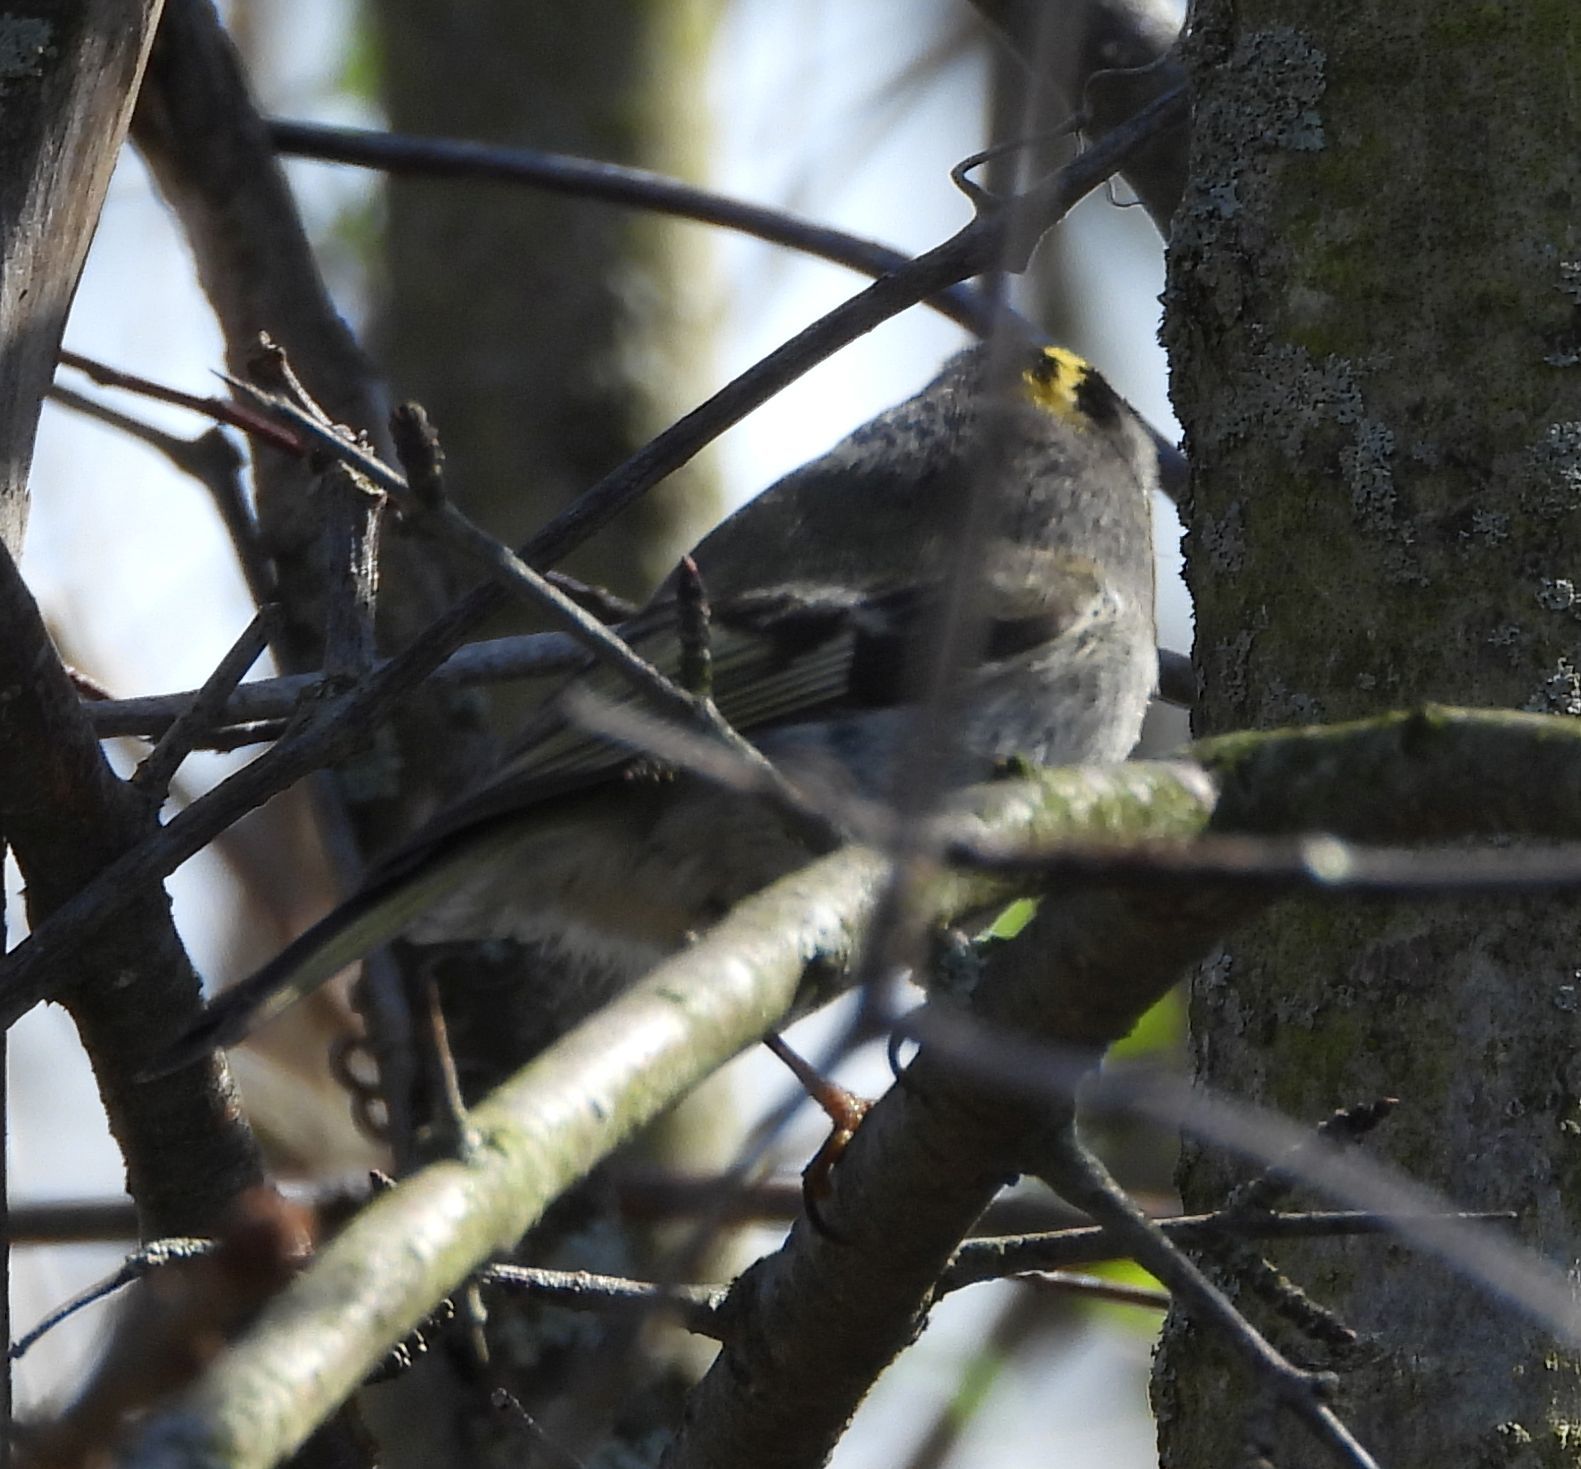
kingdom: Animalia
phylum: Chordata
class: Aves
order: Passeriformes
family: Regulidae
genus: Regulus
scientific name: Regulus satrapa
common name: Golden-crowned kinglet
